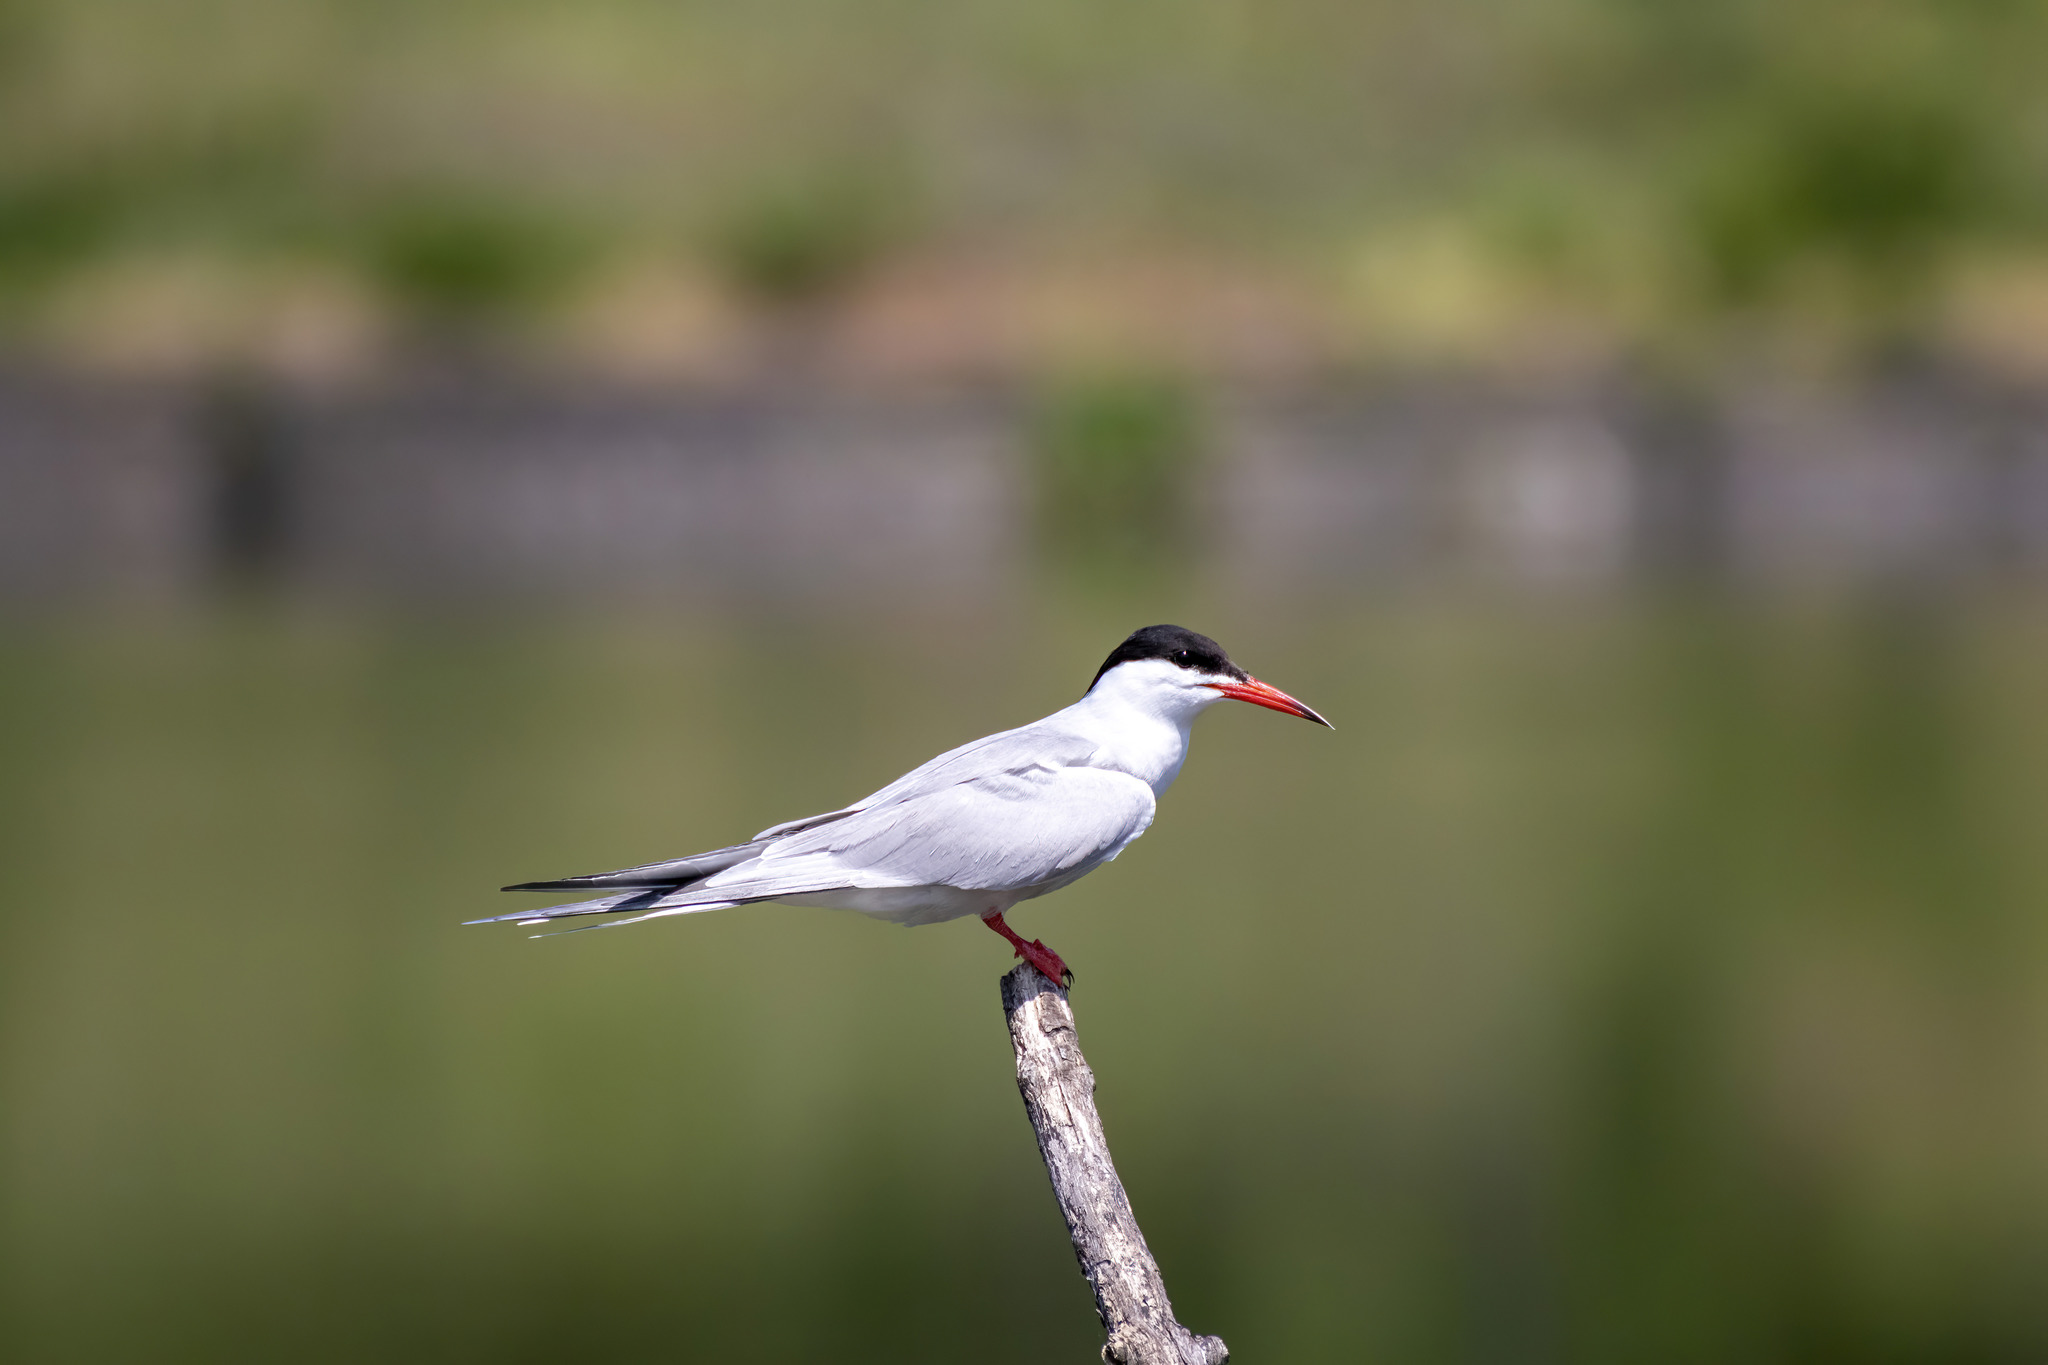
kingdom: Animalia
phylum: Chordata
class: Aves
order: Charadriiformes
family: Laridae
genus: Sterna
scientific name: Sterna hirundo
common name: Common tern
